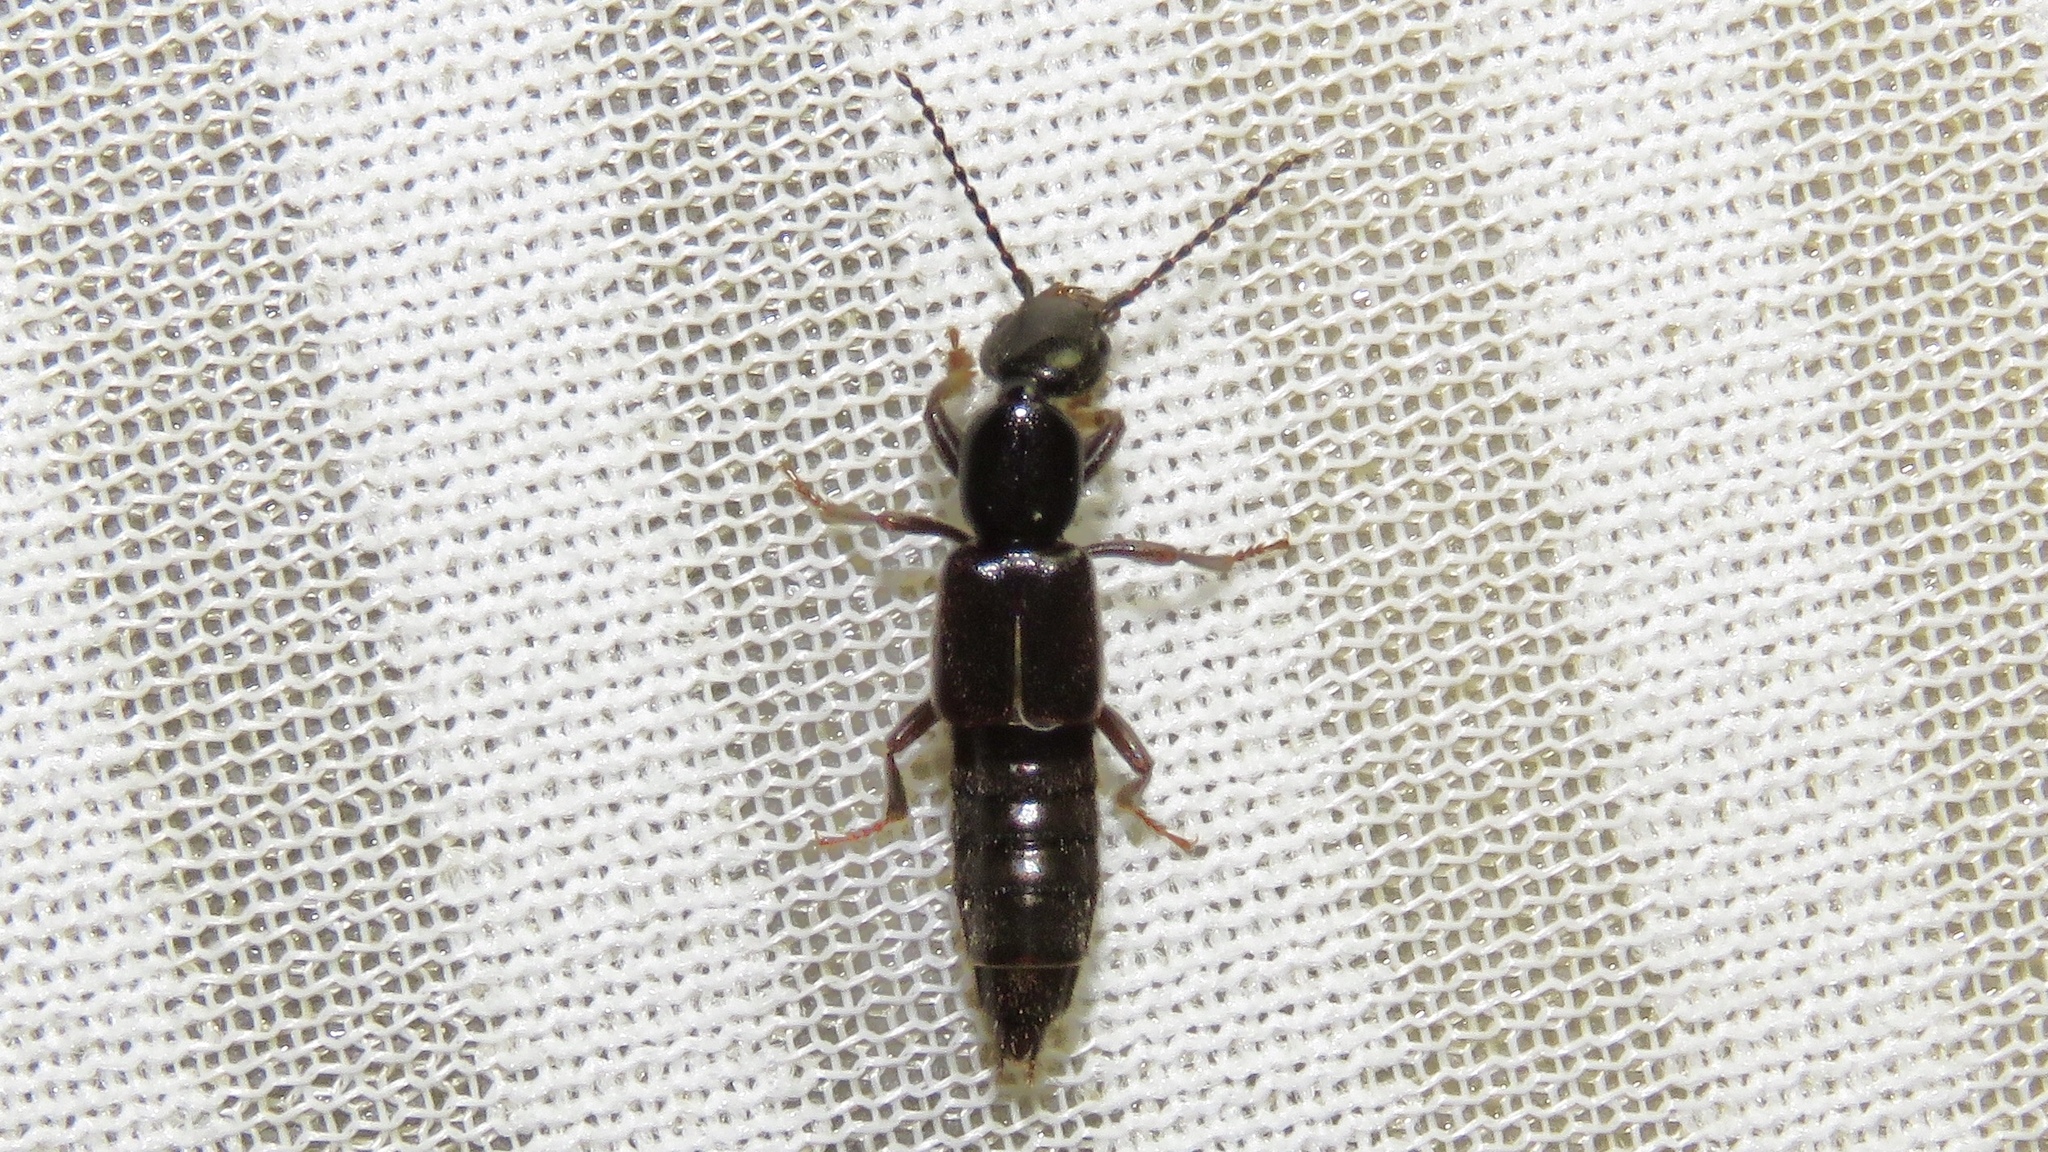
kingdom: Animalia
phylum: Arthropoda
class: Insecta
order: Coleoptera
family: Staphylinidae
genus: Lobrathium
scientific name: Lobrathium grande
